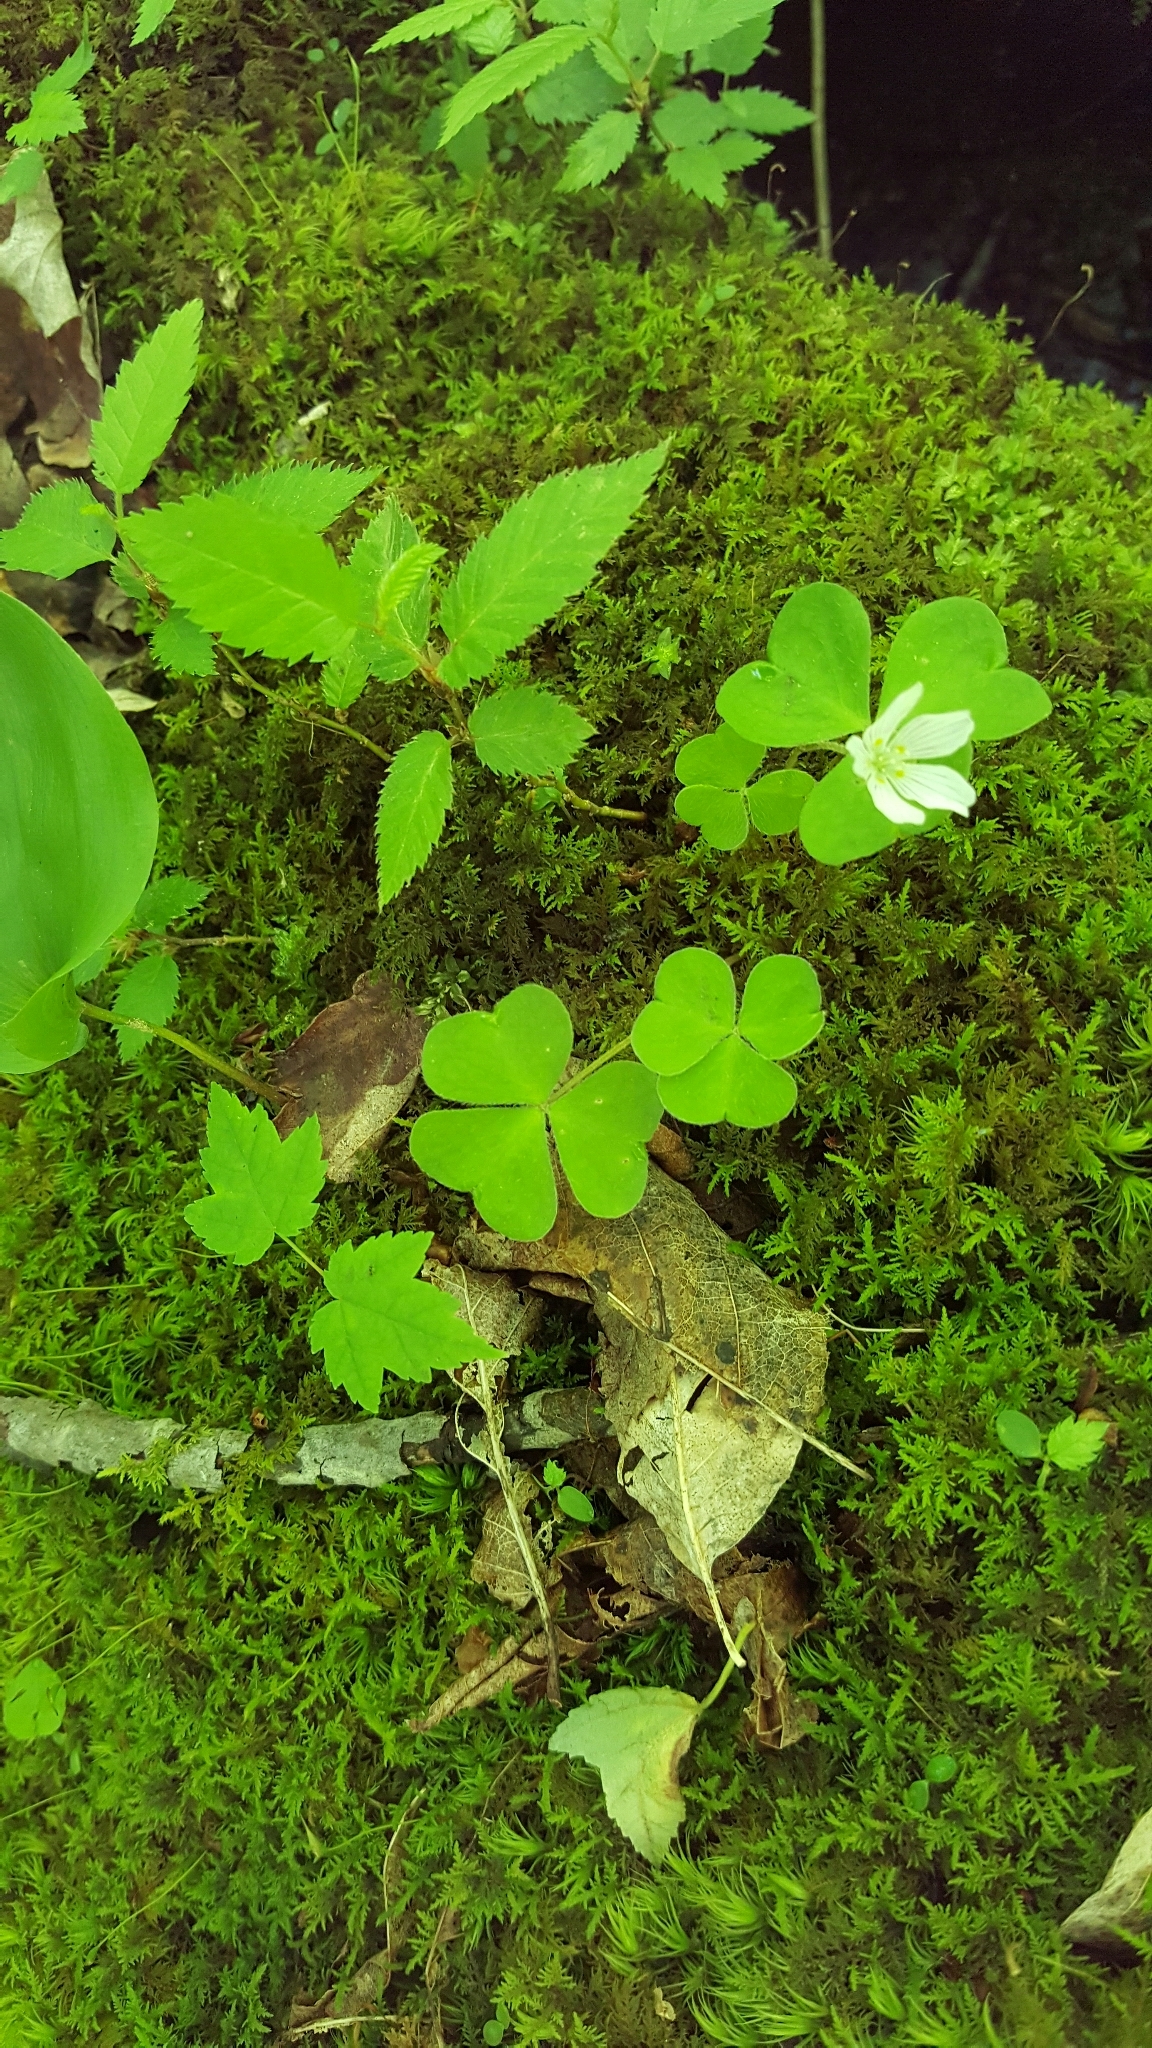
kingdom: Plantae
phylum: Tracheophyta
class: Magnoliopsida
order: Oxalidales
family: Oxalidaceae
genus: Oxalis
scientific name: Oxalis montana
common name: American wood-sorrel
